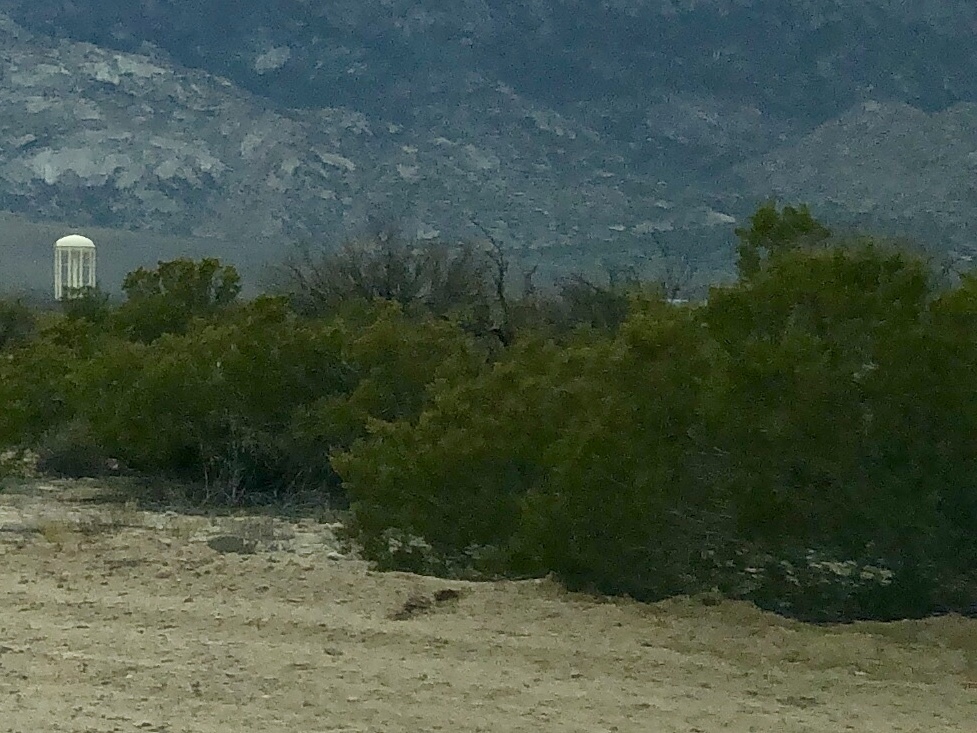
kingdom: Plantae
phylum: Tracheophyta
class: Magnoliopsida
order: Zygophyllales
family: Zygophyllaceae
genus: Larrea
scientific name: Larrea tridentata
